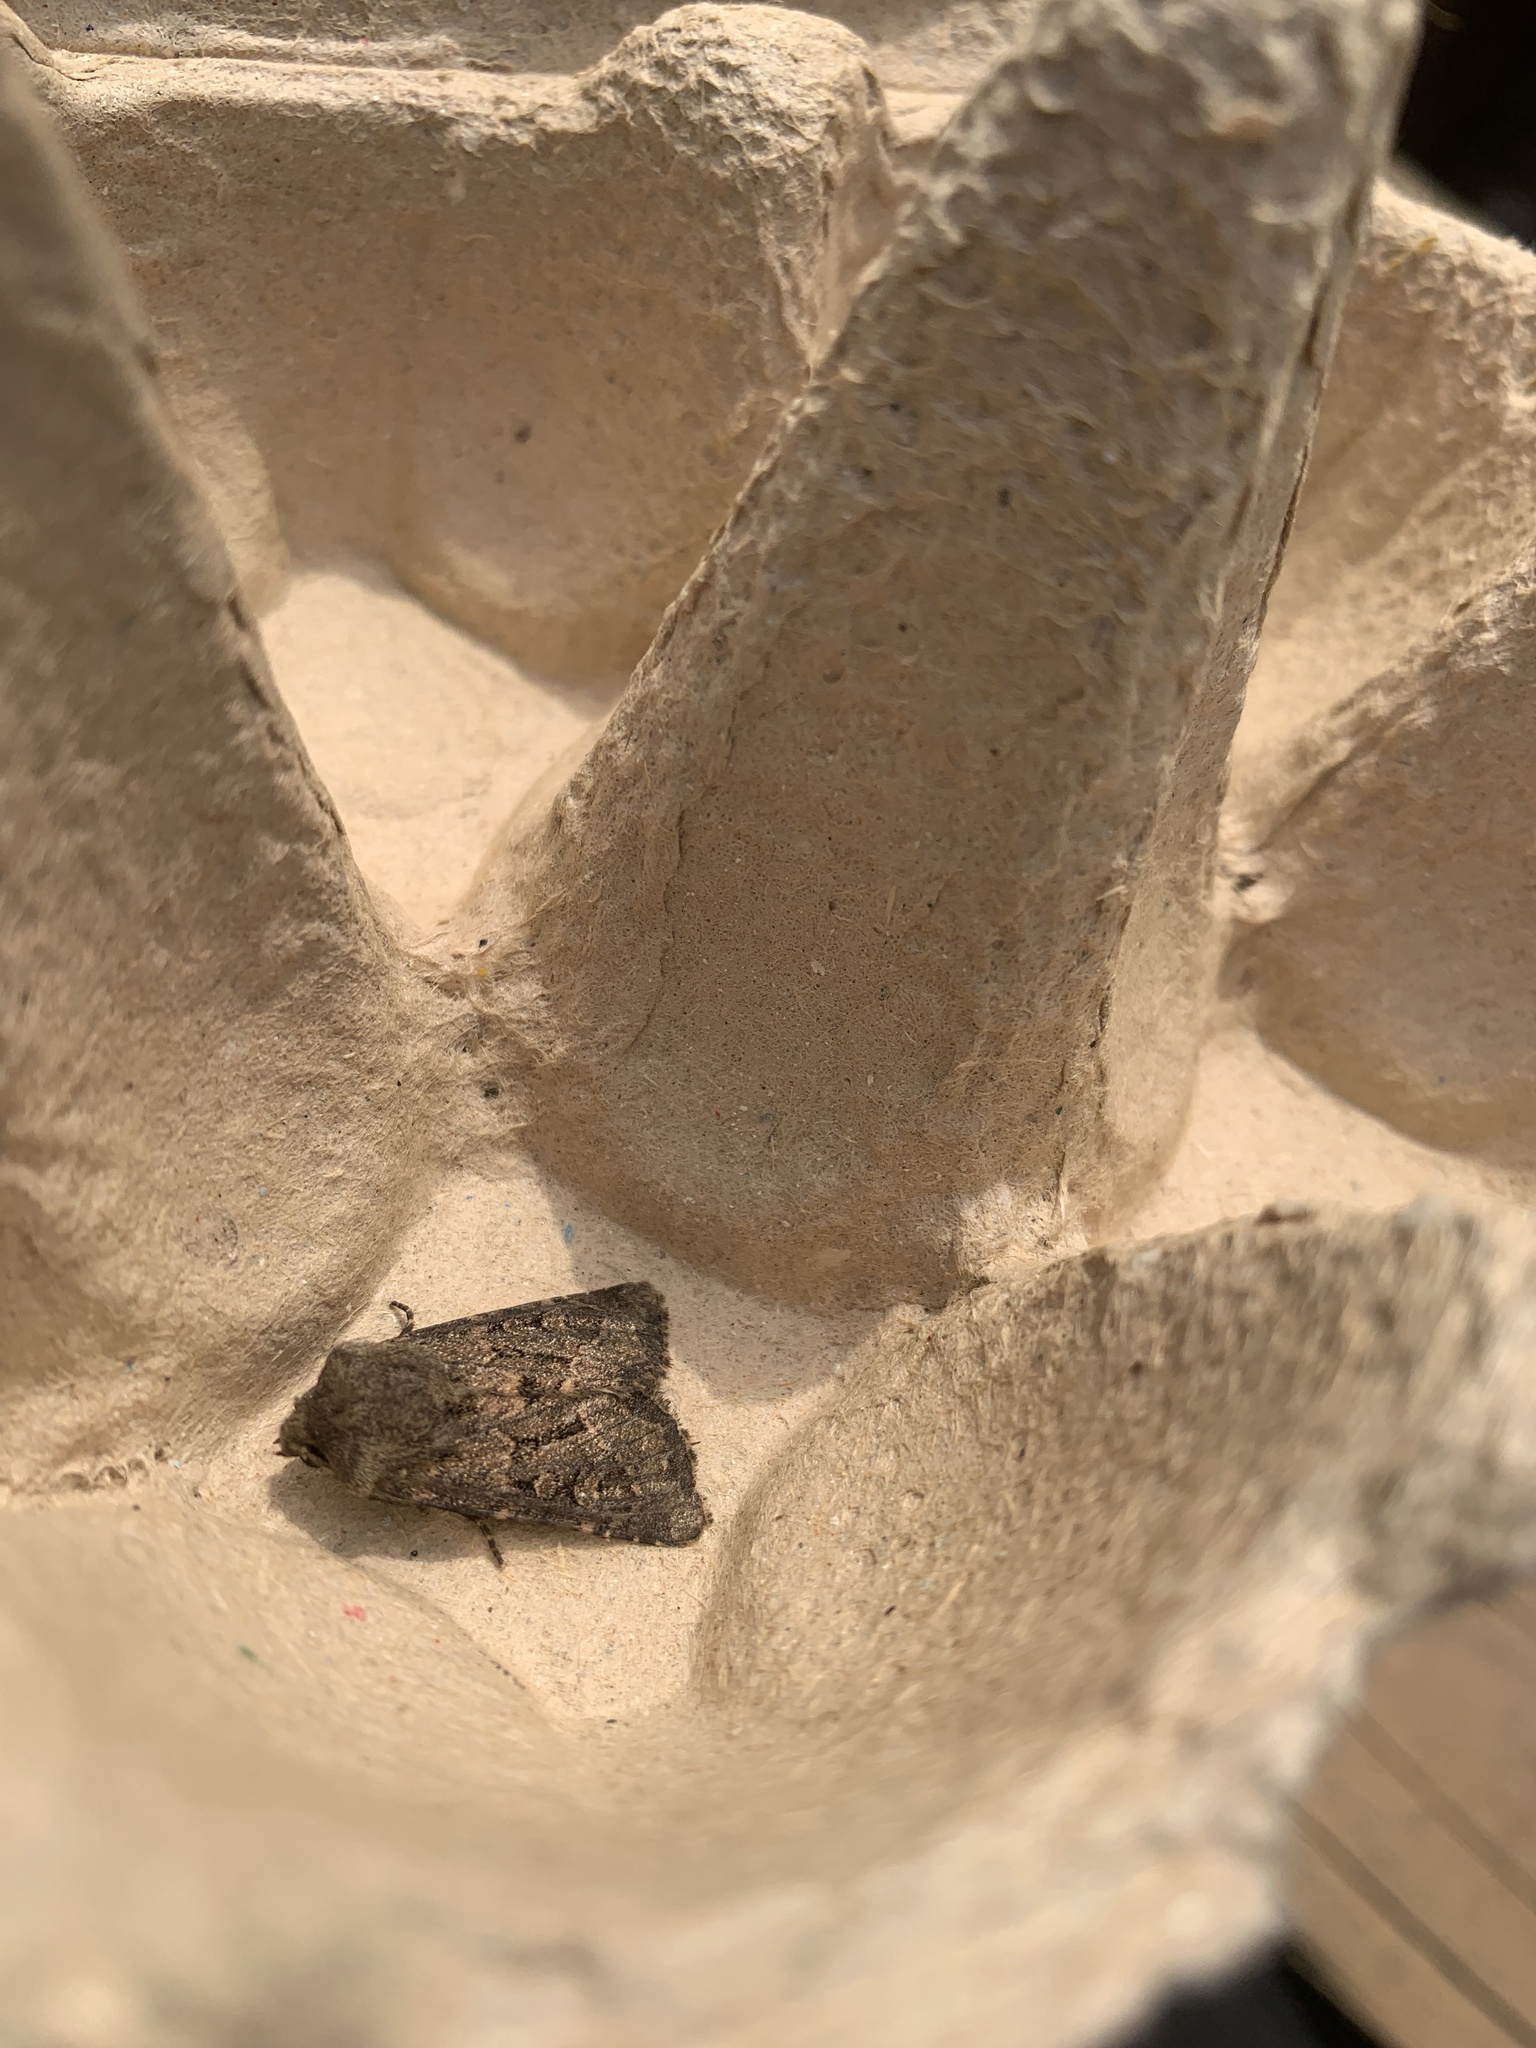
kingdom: Animalia
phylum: Arthropoda
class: Insecta
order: Lepidoptera
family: Noctuidae
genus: Luperina
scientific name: Luperina testacea
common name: Flounced rustic
